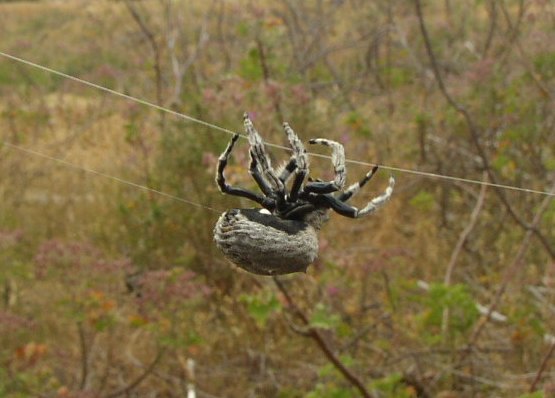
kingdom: Animalia
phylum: Arthropoda
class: Arachnida
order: Araneae
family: Araneidae
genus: Caerostris
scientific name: Caerostris sexcuspidata
